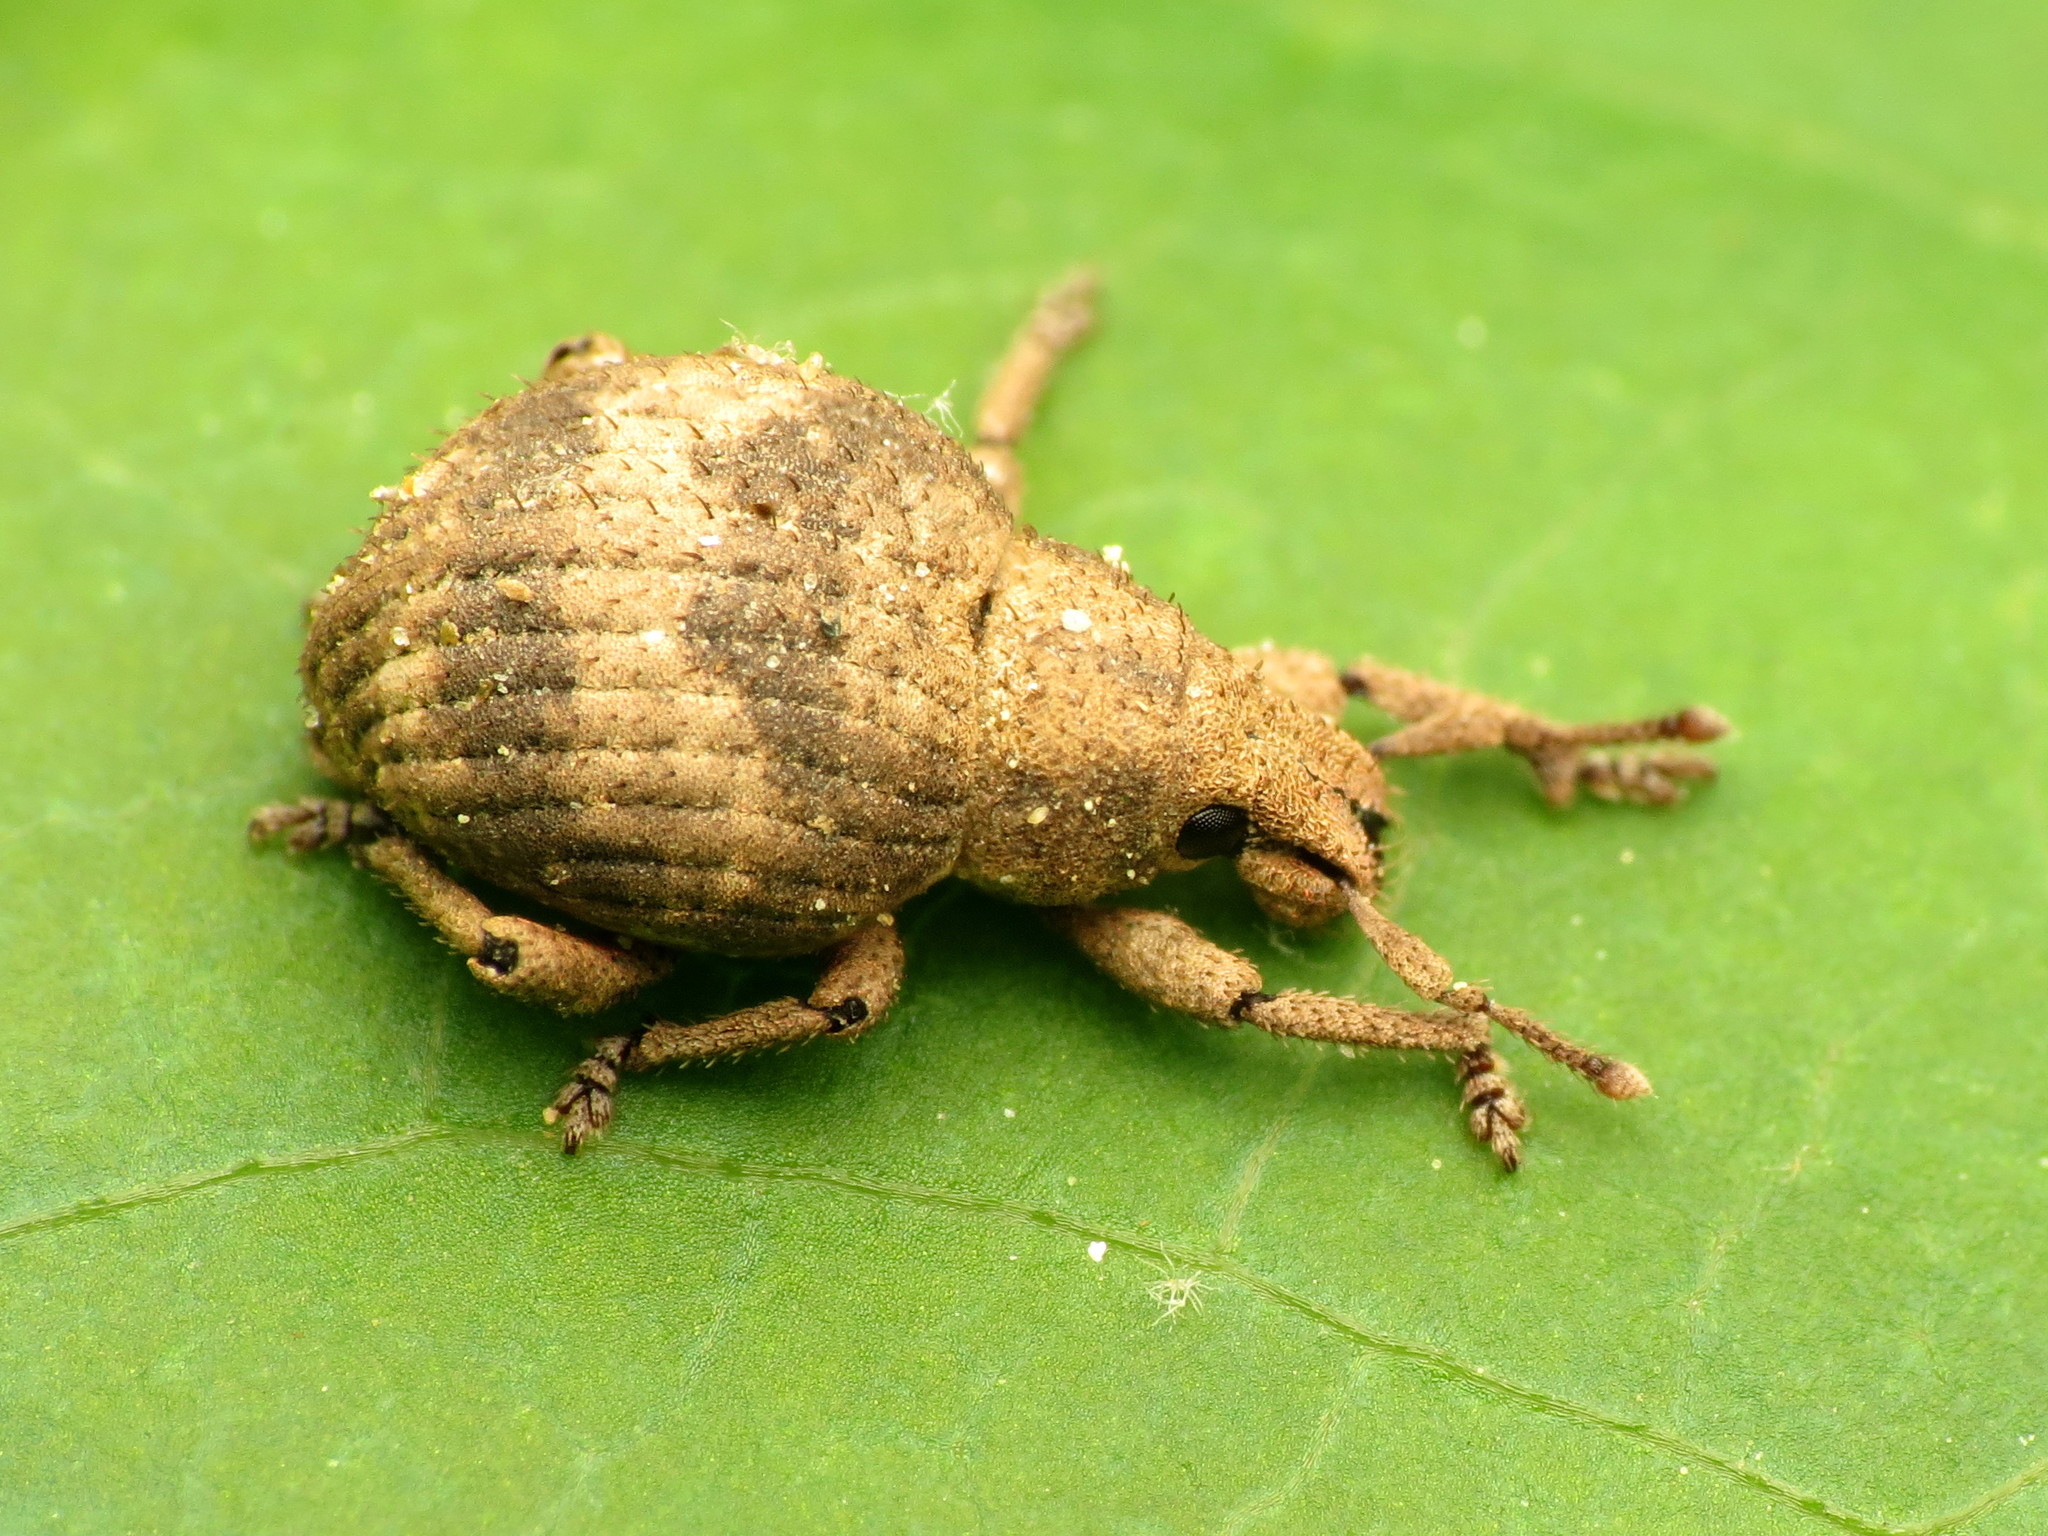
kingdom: Animalia
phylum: Arthropoda
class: Insecta
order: Coleoptera
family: Curculionidae
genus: Pseudocneorhinus
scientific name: Pseudocneorhinus bifasciatus
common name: Two-banded japanese weevil
